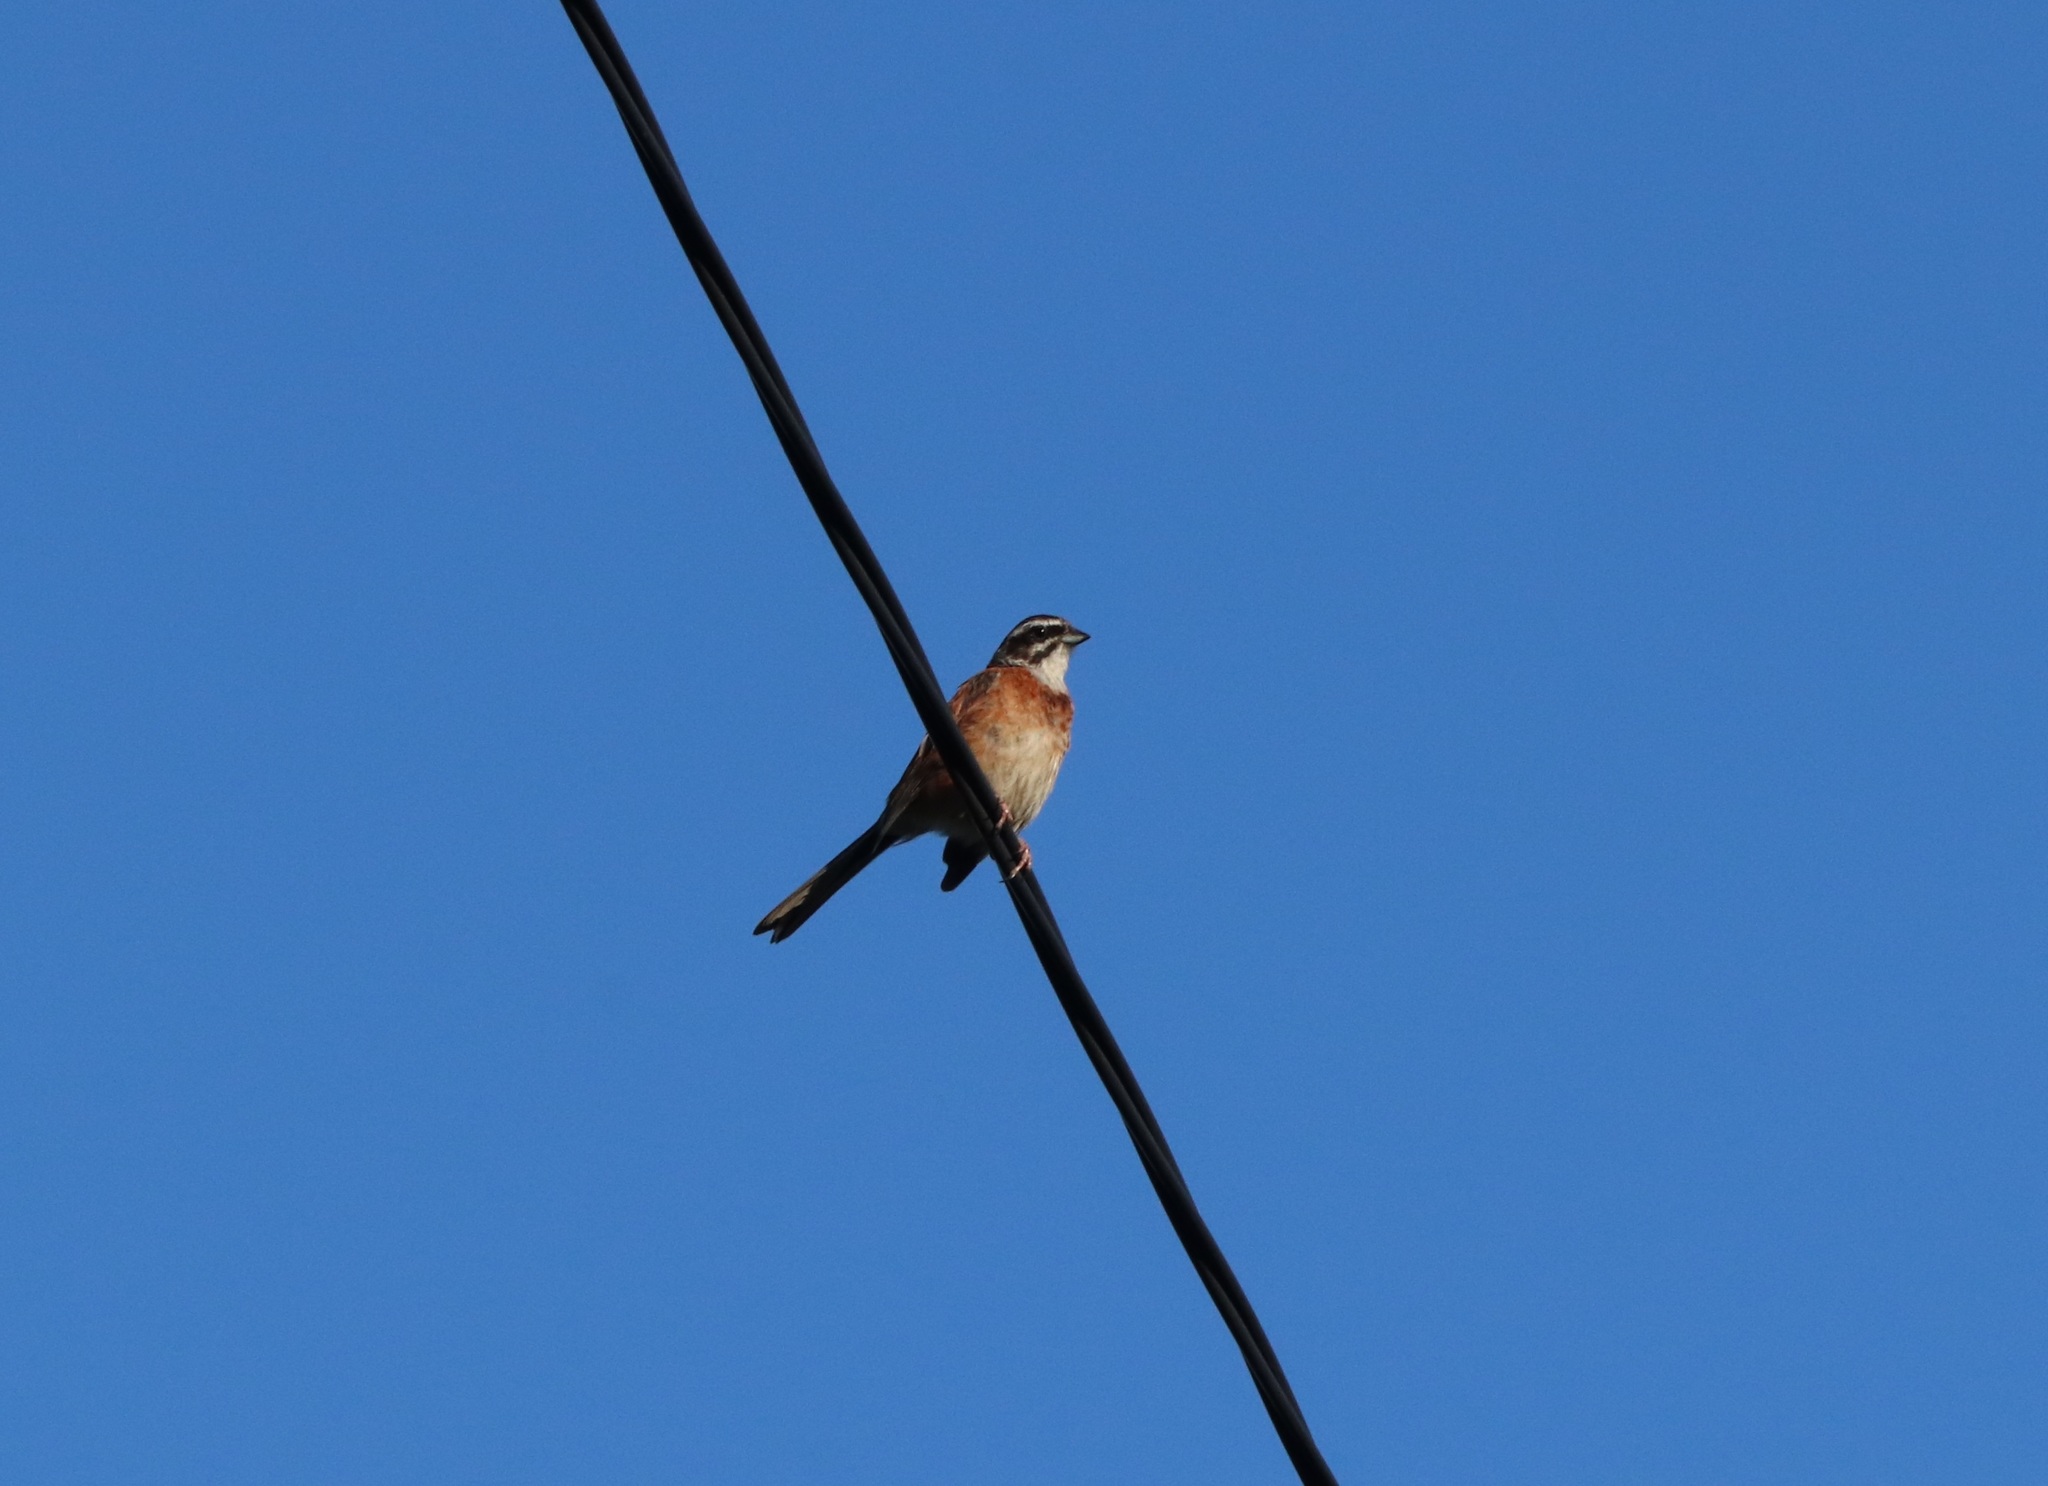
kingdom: Animalia
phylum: Chordata
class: Aves
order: Passeriformes
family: Emberizidae
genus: Emberiza
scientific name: Emberiza cioides
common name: Meadow bunting
